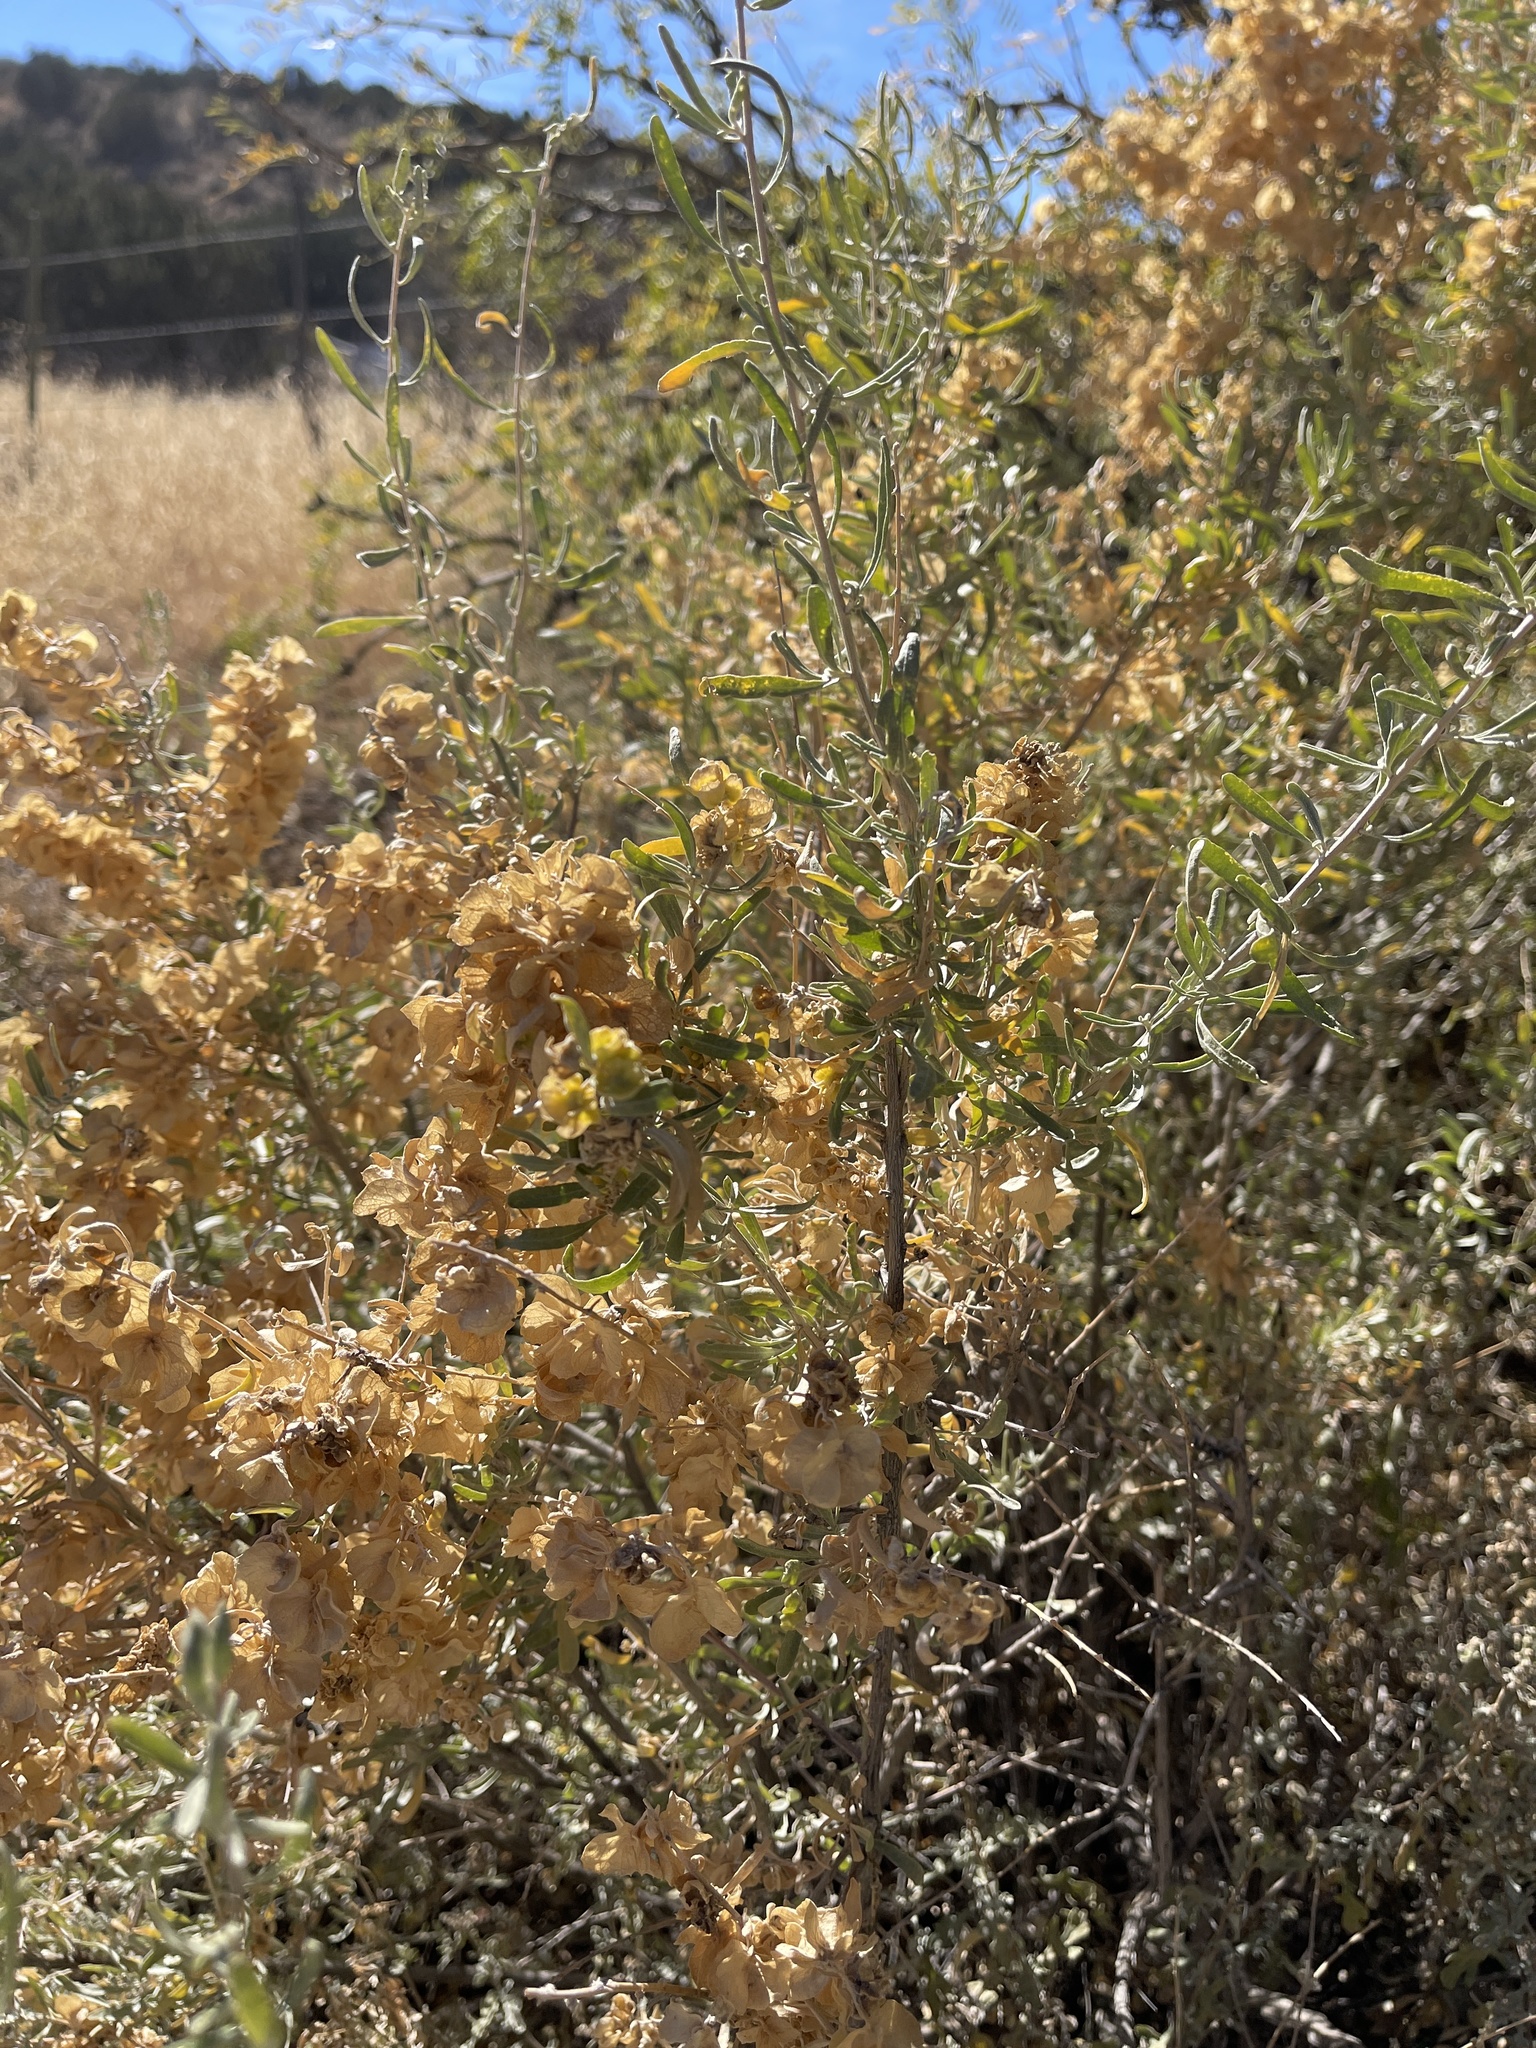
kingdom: Plantae
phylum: Tracheophyta
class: Magnoliopsida
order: Caryophyllales
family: Amaranthaceae
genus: Atriplex
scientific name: Atriplex canescens
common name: Four-wing saltbush
